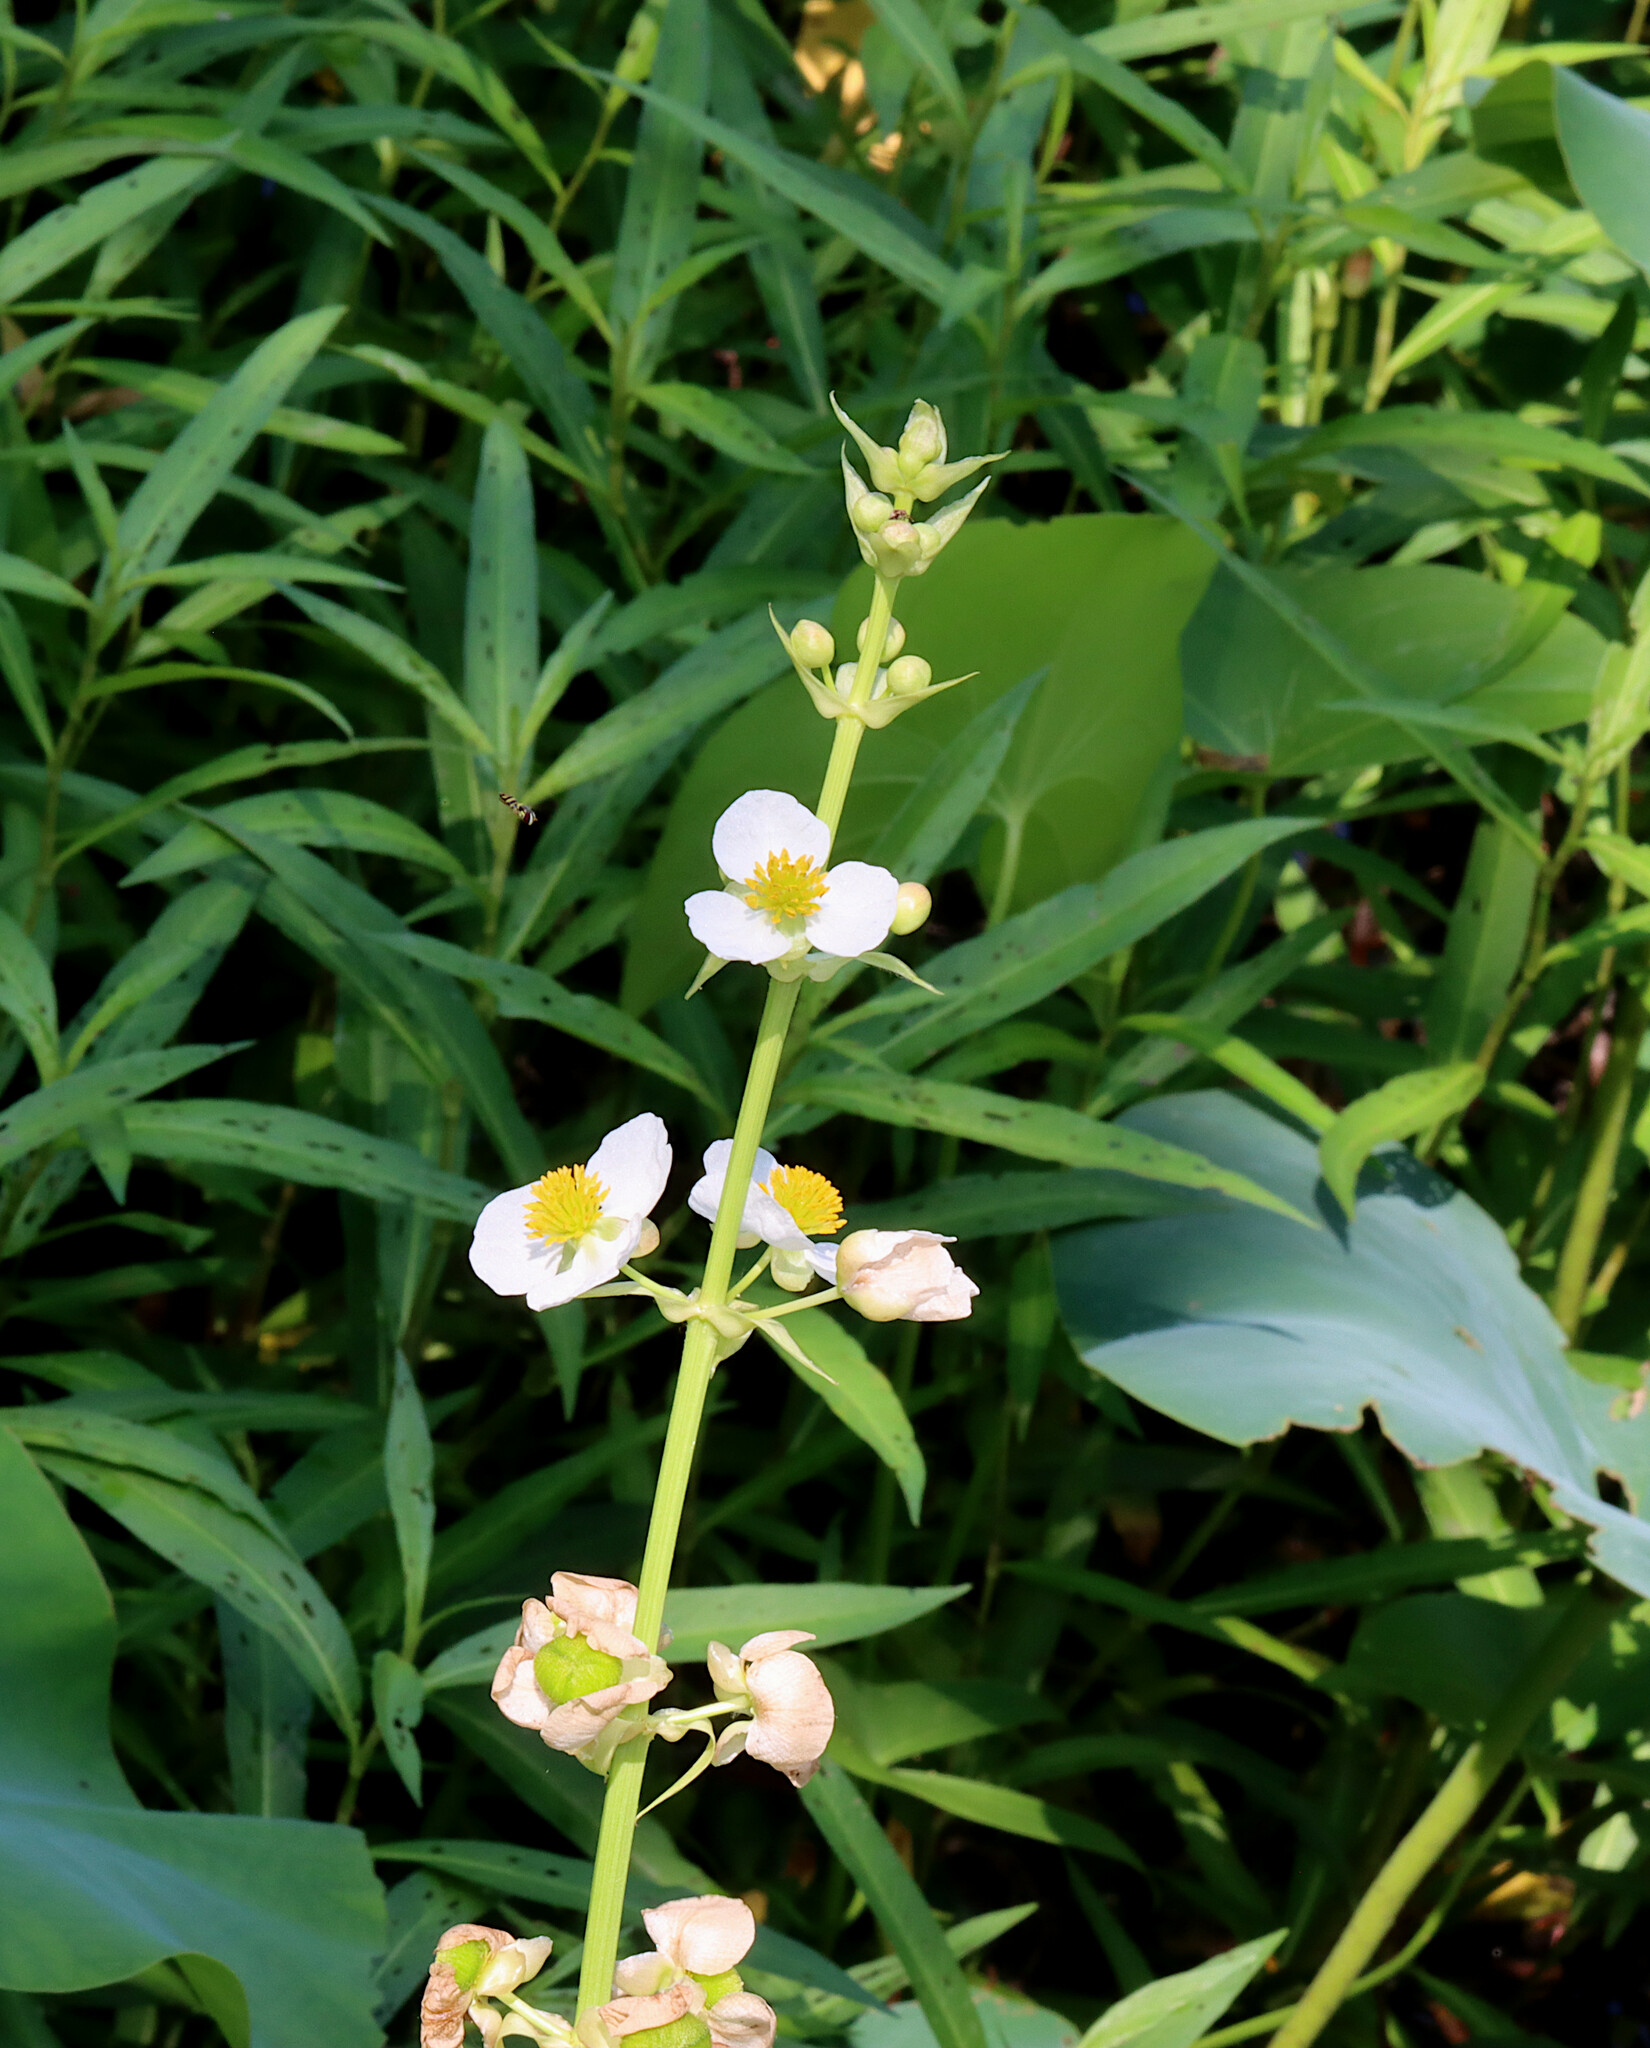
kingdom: Plantae
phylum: Tracheophyta
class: Liliopsida
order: Alismatales
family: Alismataceae
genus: Sagittaria
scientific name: Sagittaria brevirostra
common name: Midwestern arrowhead
